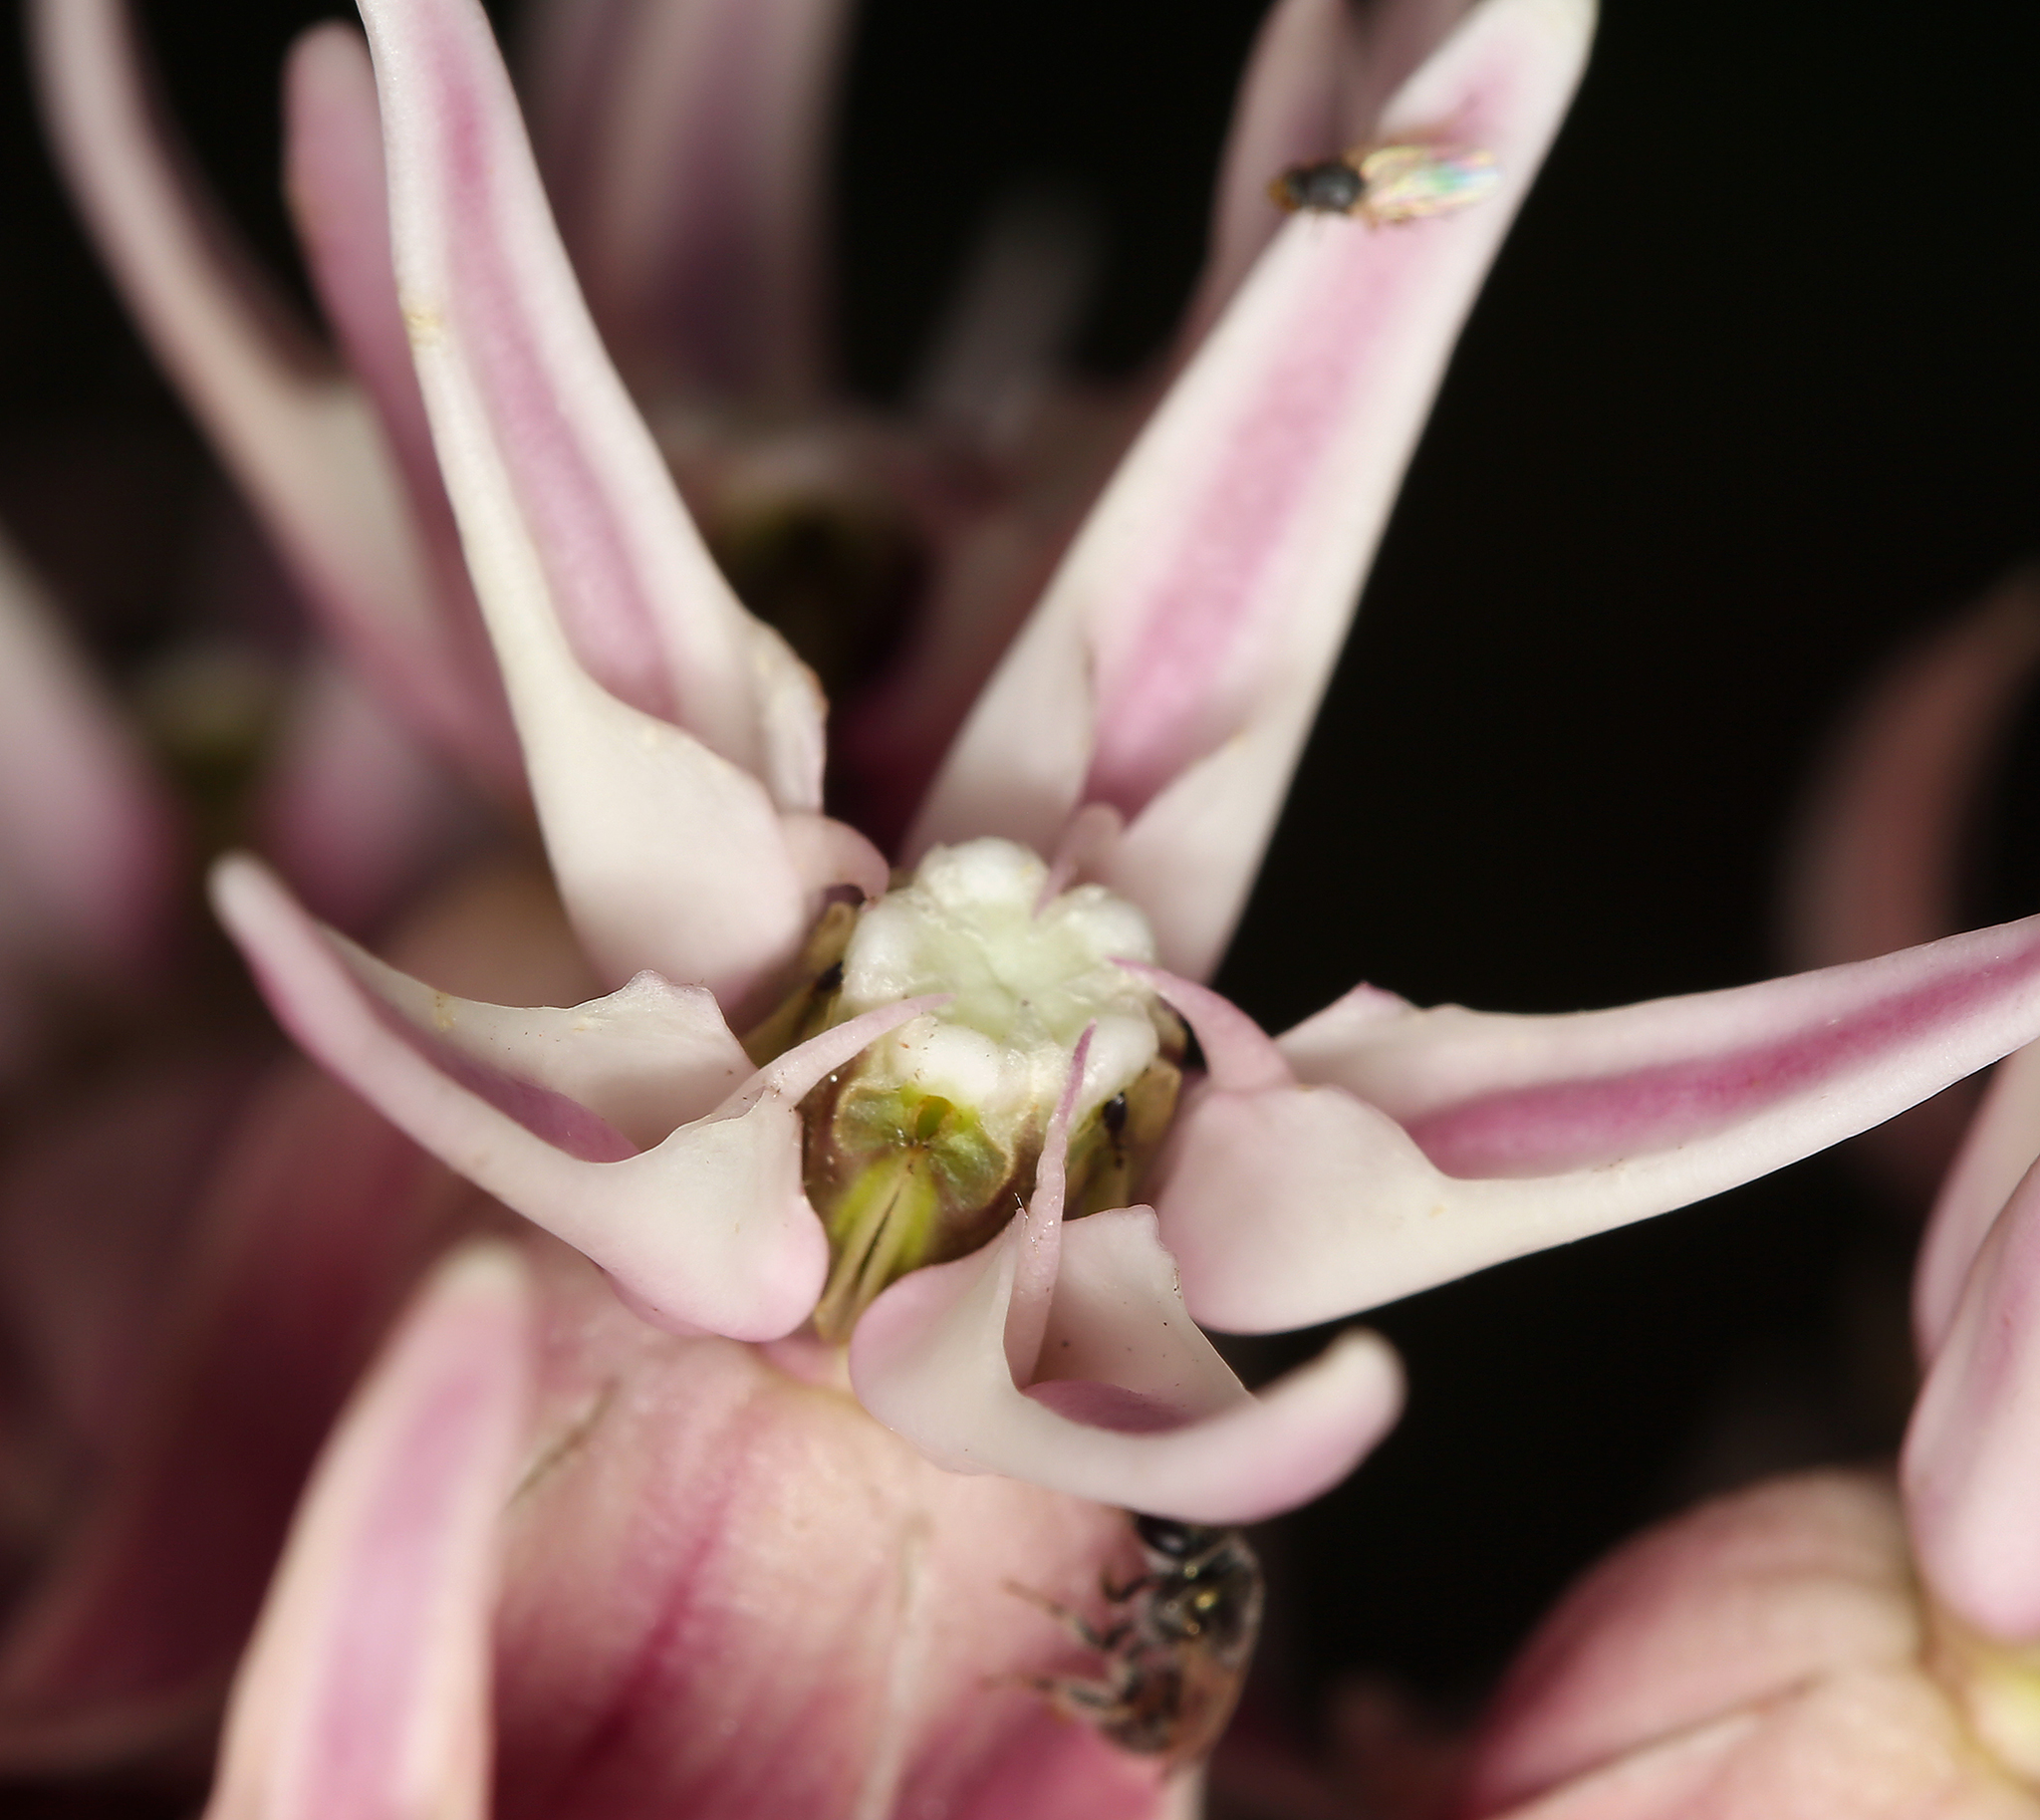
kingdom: Plantae
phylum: Tracheophyta
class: Magnoliopsida
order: Gentianales
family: Apocynaceae
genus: Asclepias
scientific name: Asclepias speciosa
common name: Showy milkweed
